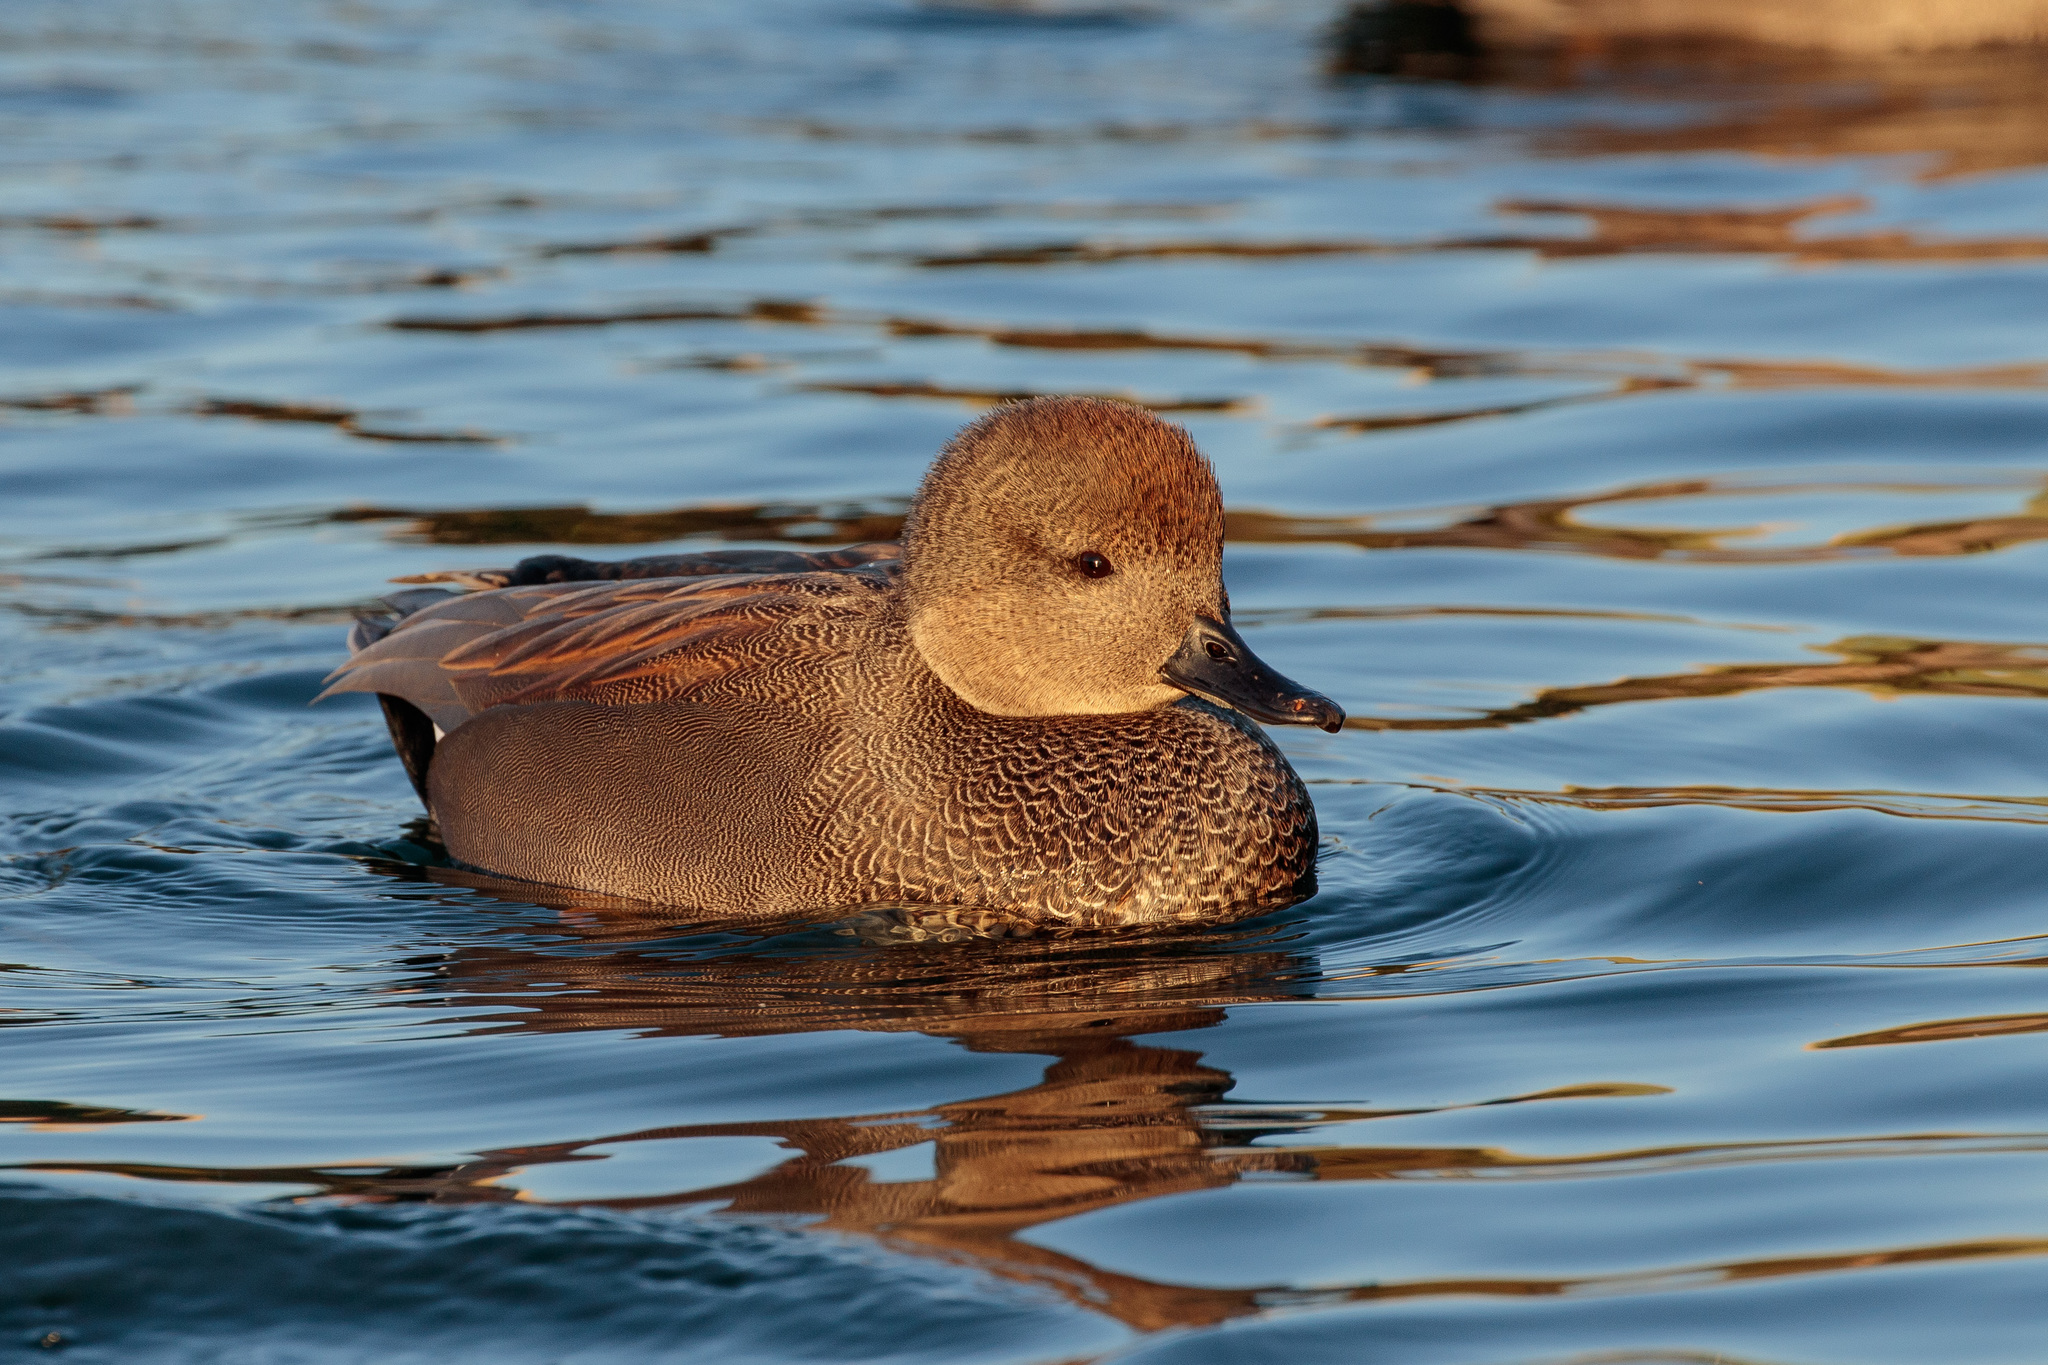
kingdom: Animalia
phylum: Chordata
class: Aves
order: Anseriformes
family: Anatidae
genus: Mareca
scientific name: Mareca strepera
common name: Gadwall
